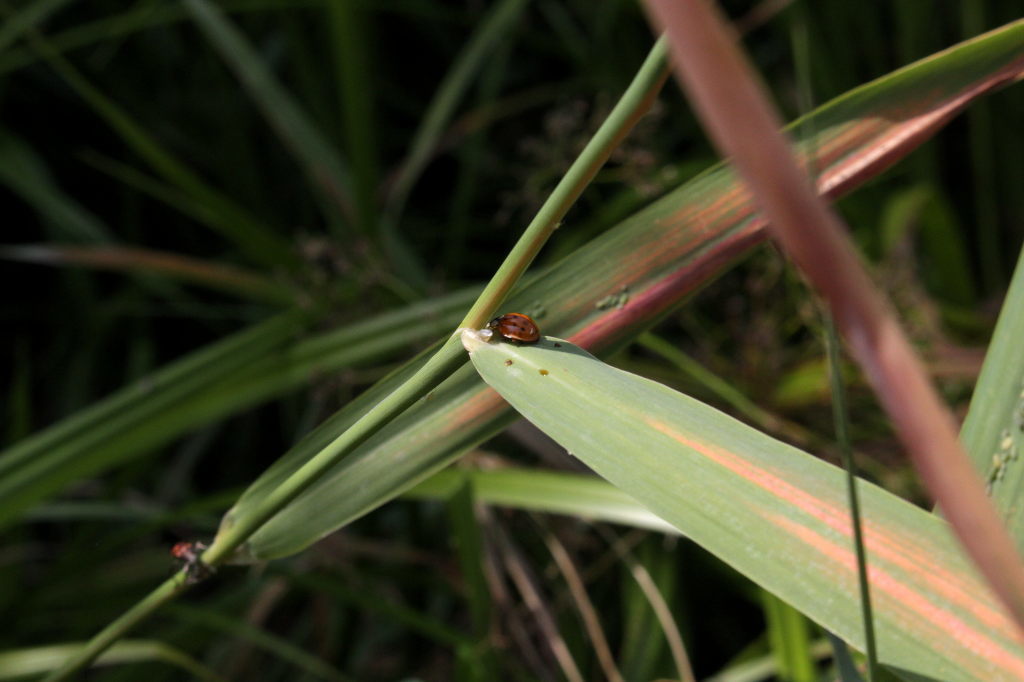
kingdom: Animalia
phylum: Arthropoda
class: Insecta
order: Coleoptera
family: Coccinellidae
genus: Harmonia
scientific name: Harmonia axyridis
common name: Harlequin ladybird
